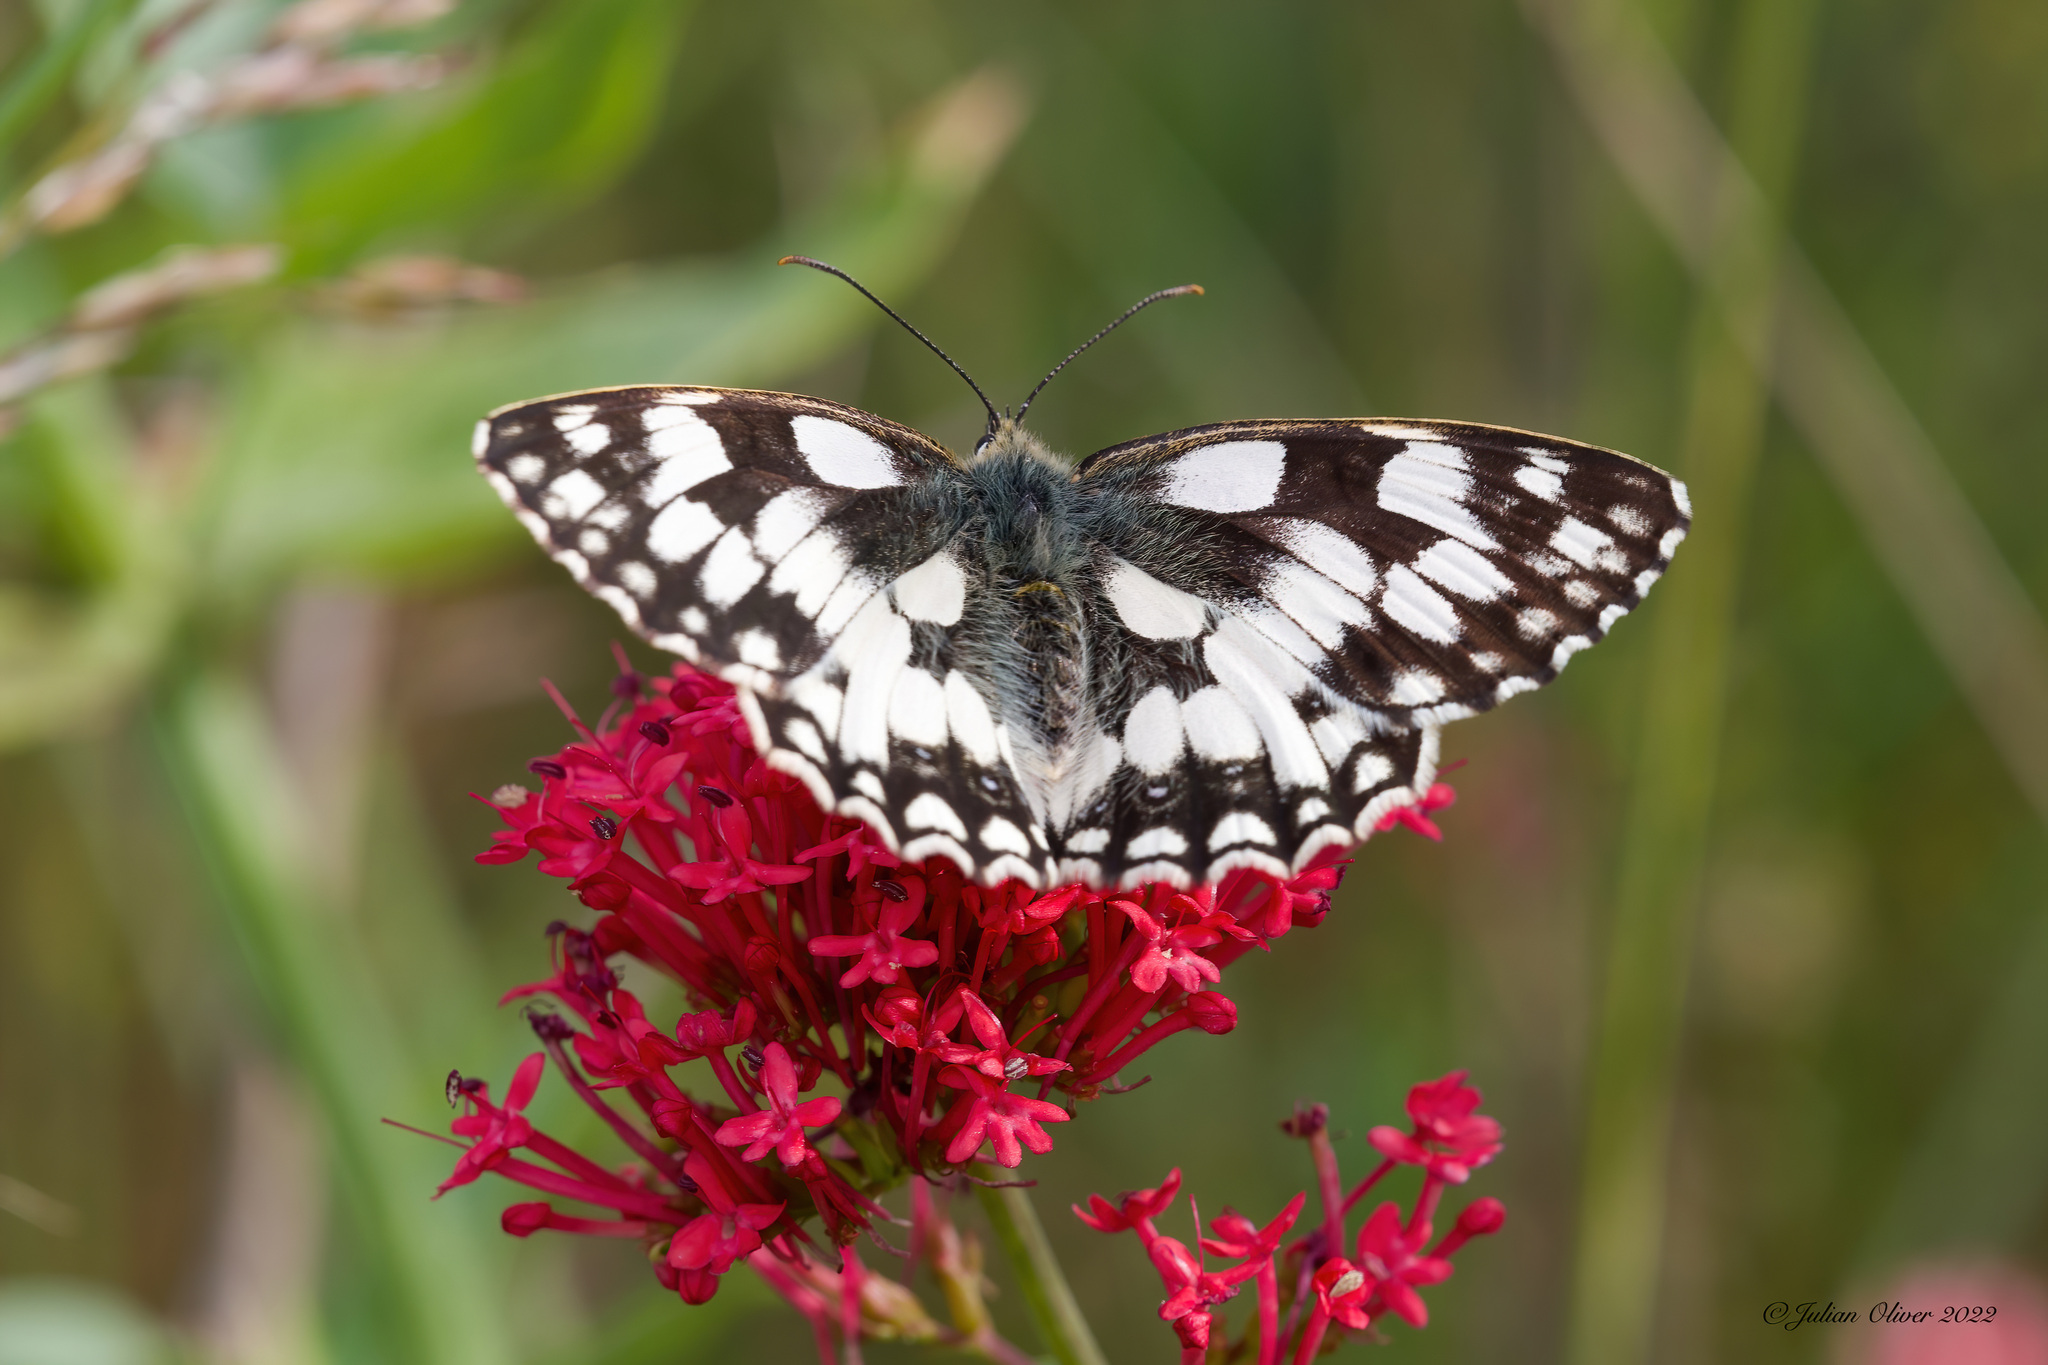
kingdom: Animalia
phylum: Arthropoda
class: Insecta
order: Lepidoptera
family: Nymphalidae
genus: Melanargia
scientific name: Melanargia galathea
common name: Marbled white
